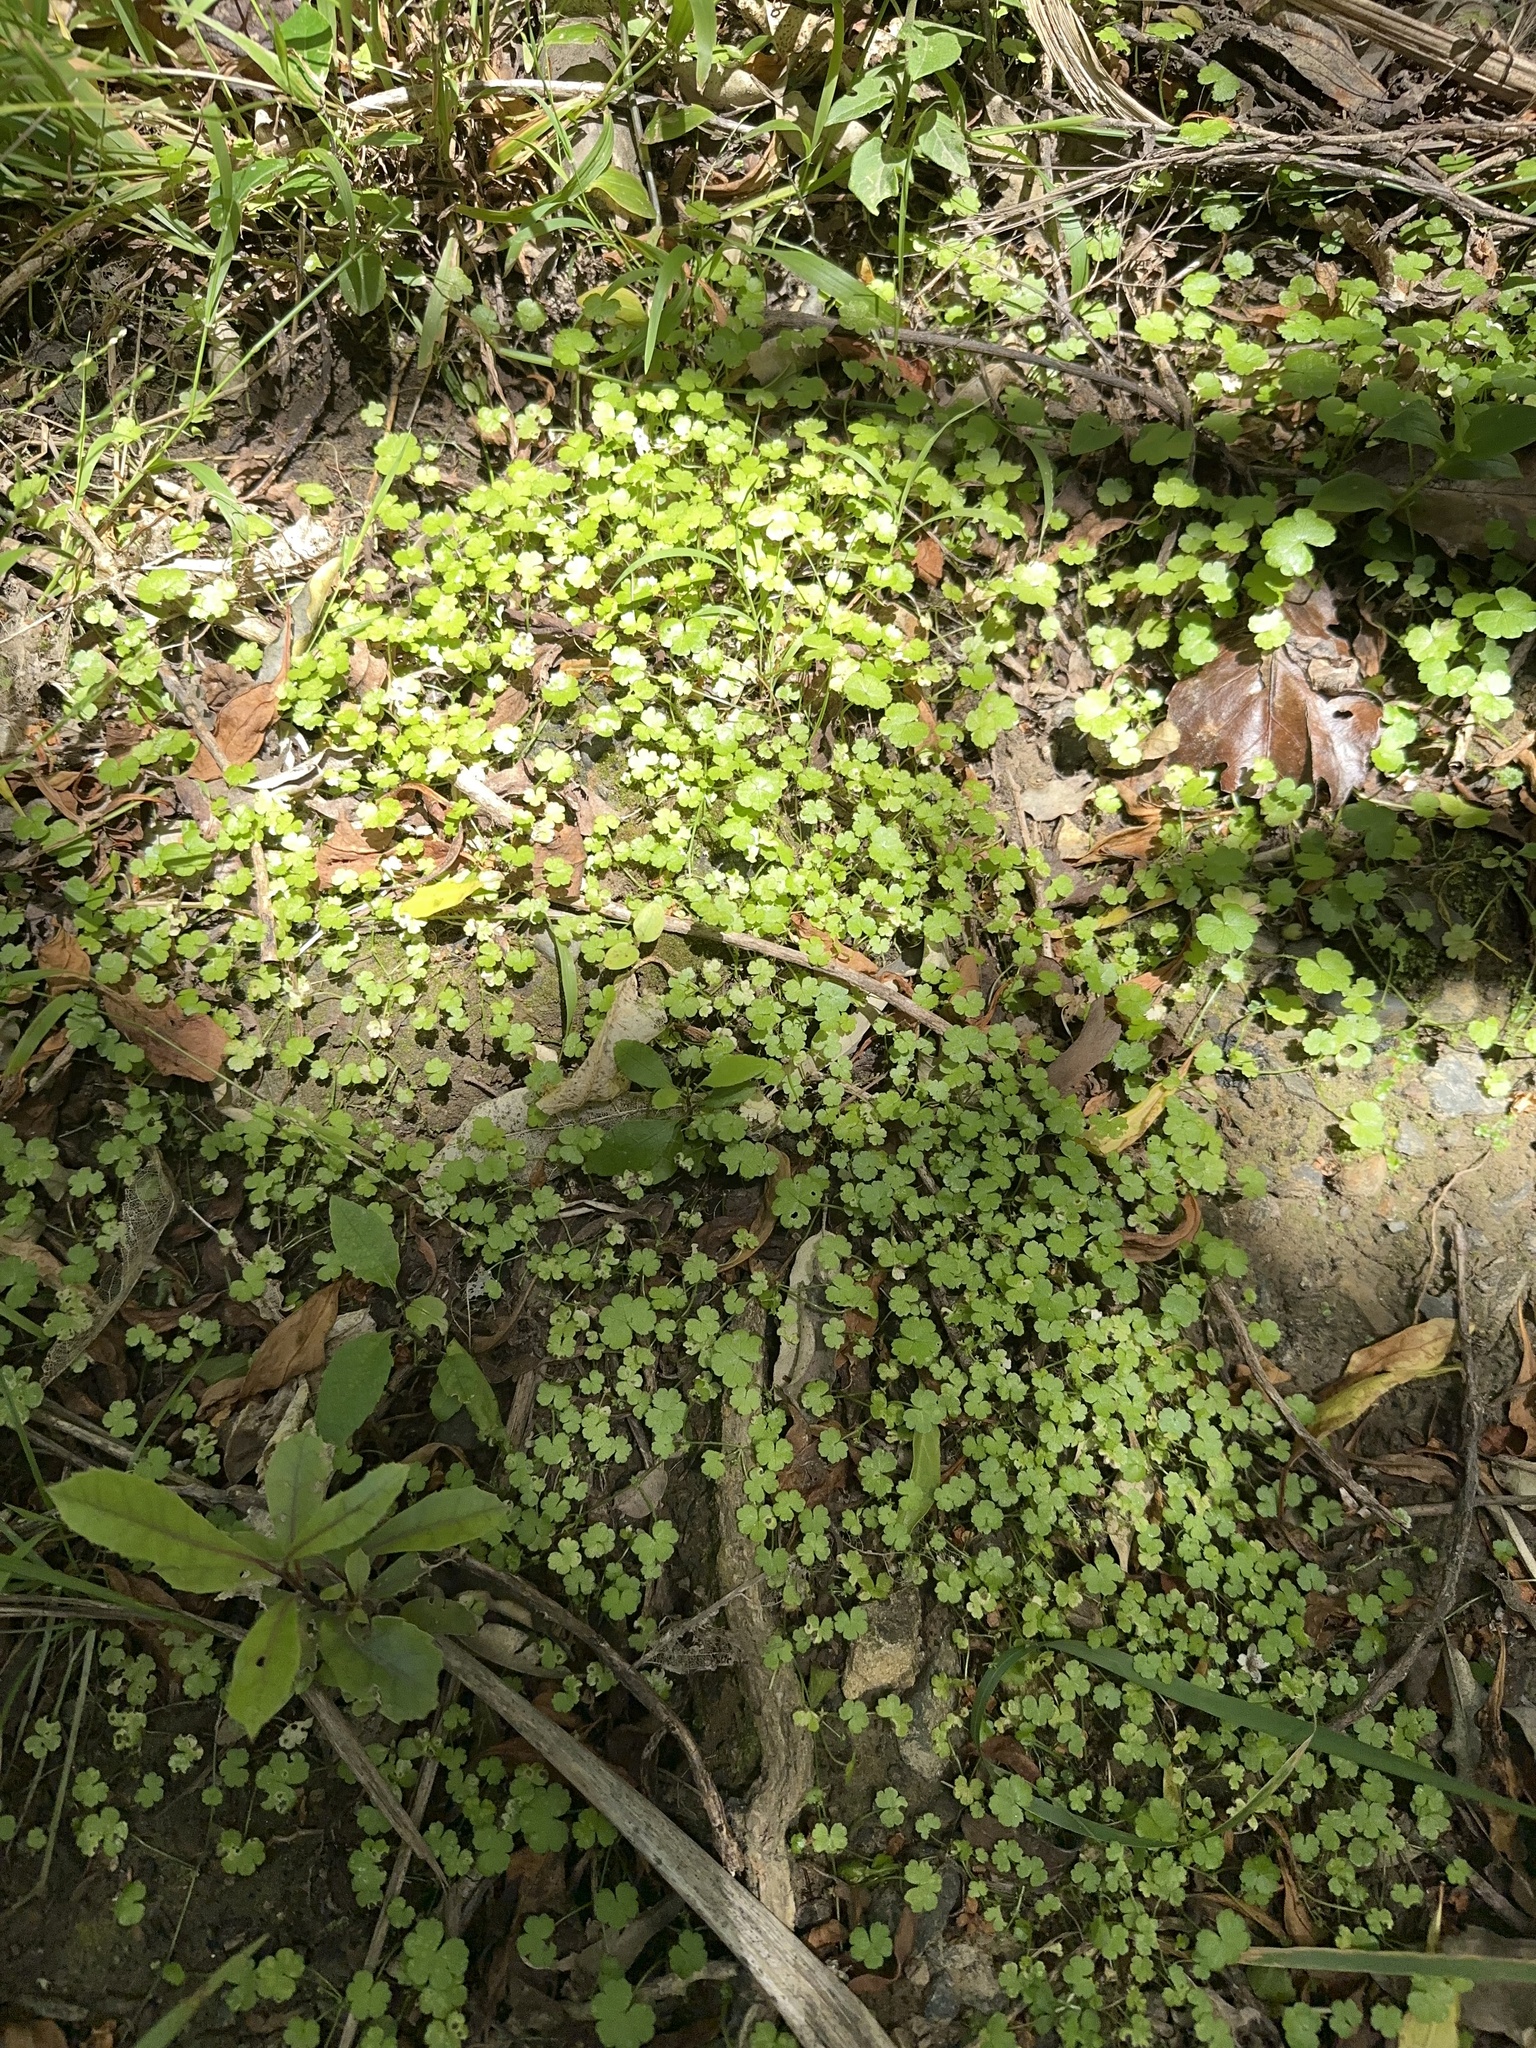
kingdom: Plantae
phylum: Tracheophyta
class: Magnoliopsida
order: Apiales
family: Araliaceae
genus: Hydrocotyle
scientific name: Hydrocotyle heteromeria
